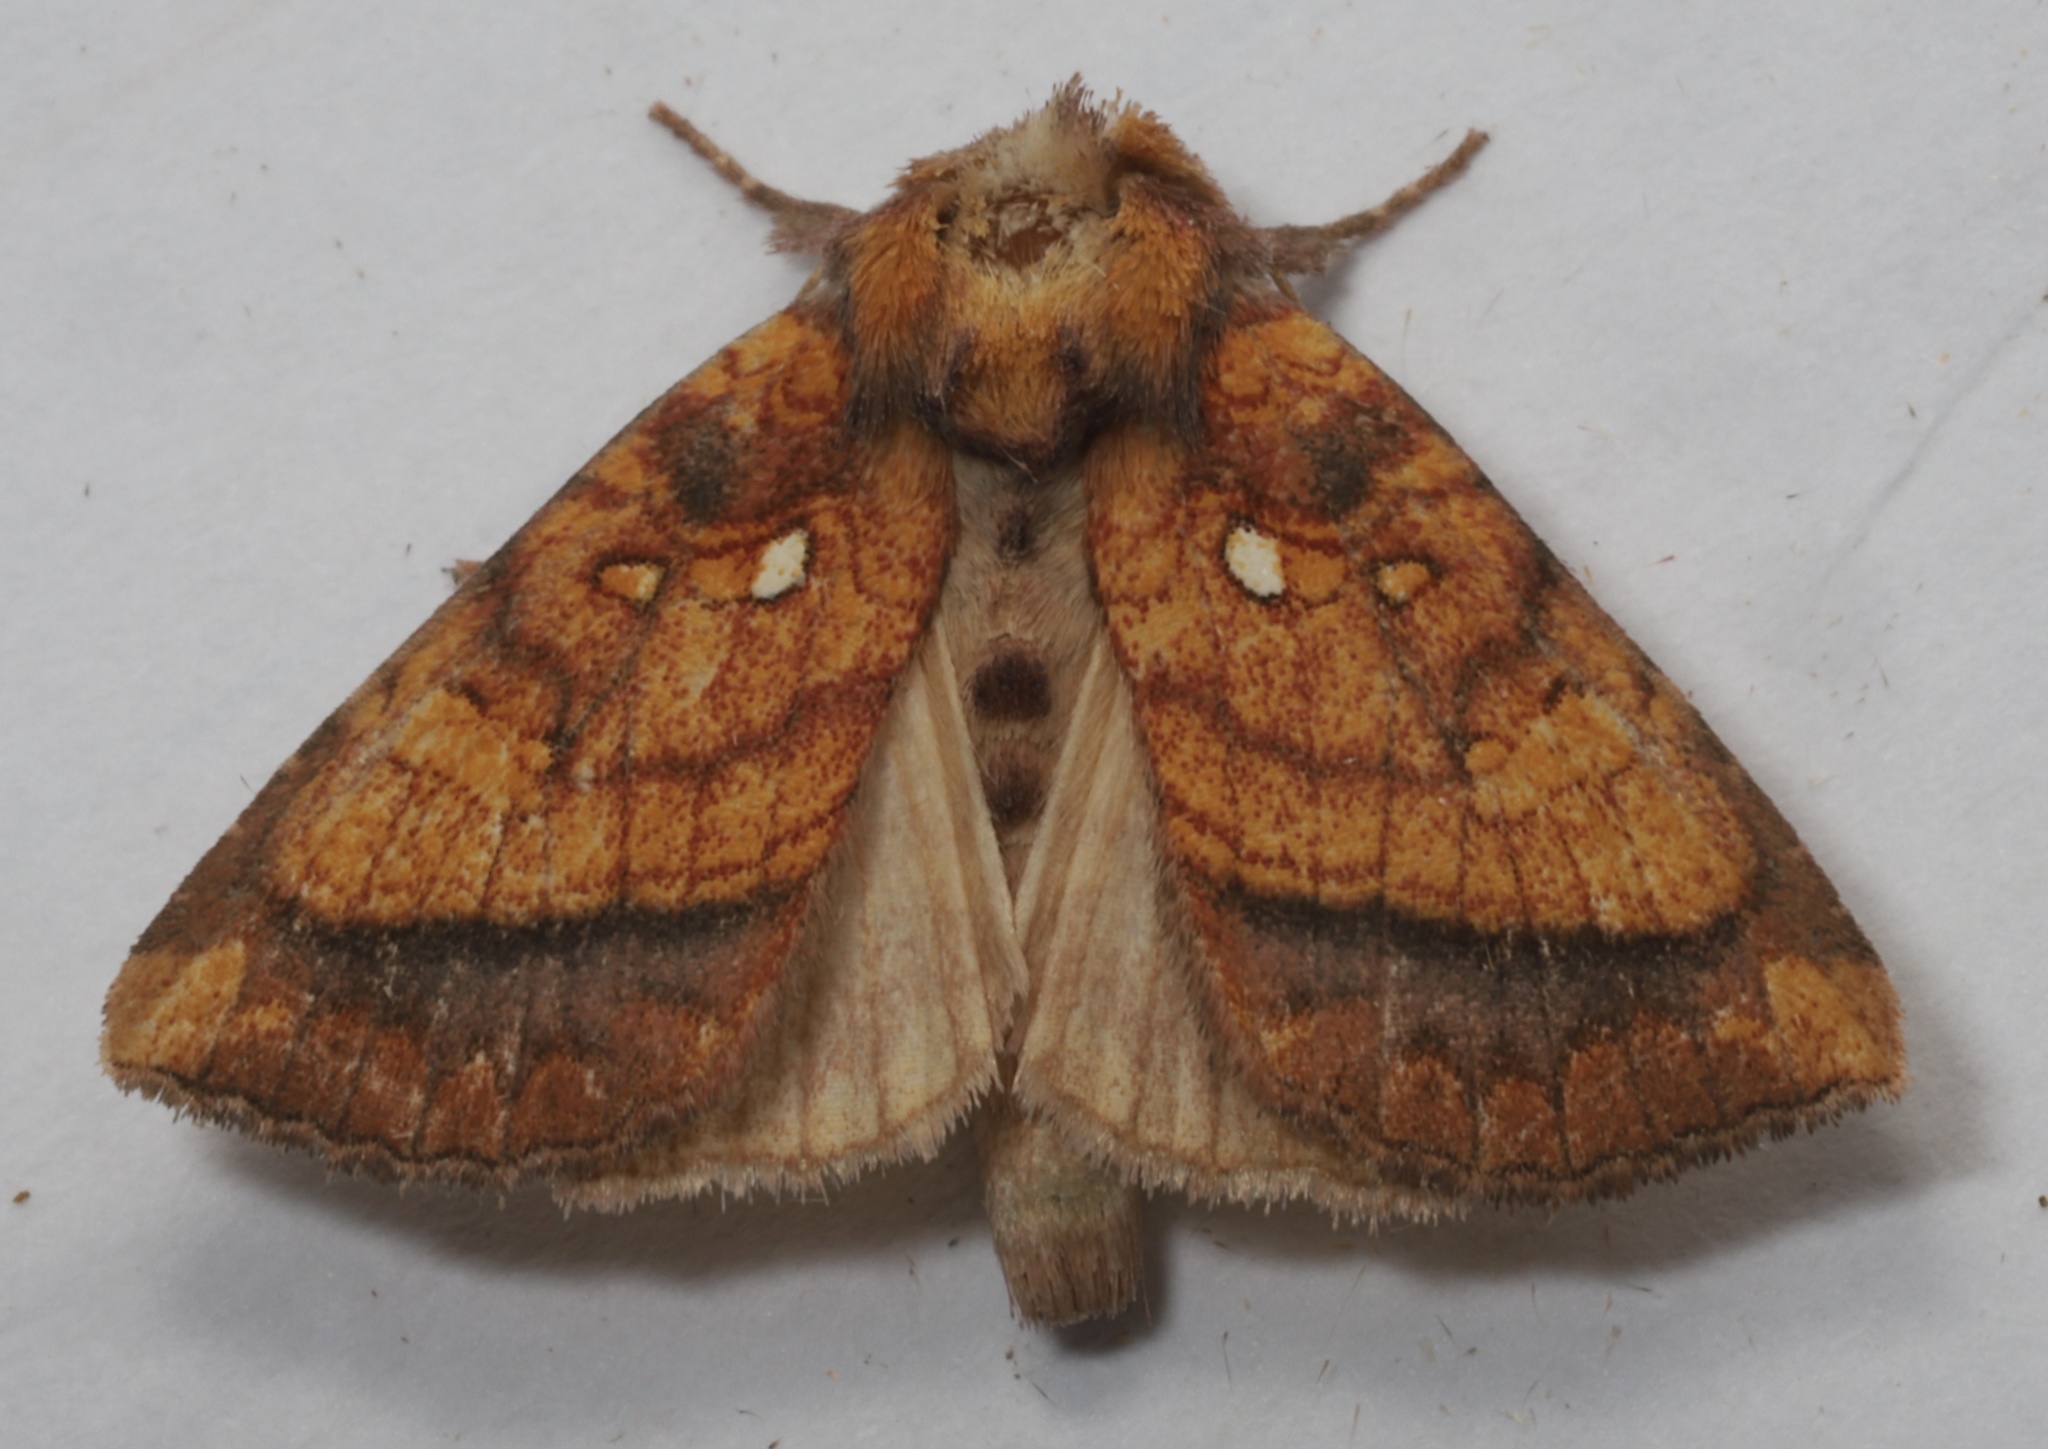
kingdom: Animalia
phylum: Arthropoda
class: Insecta
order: Lepidoptera
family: Noctuidae
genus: Papaipema
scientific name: Papaipema leucostigma
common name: Columbine borer moth
